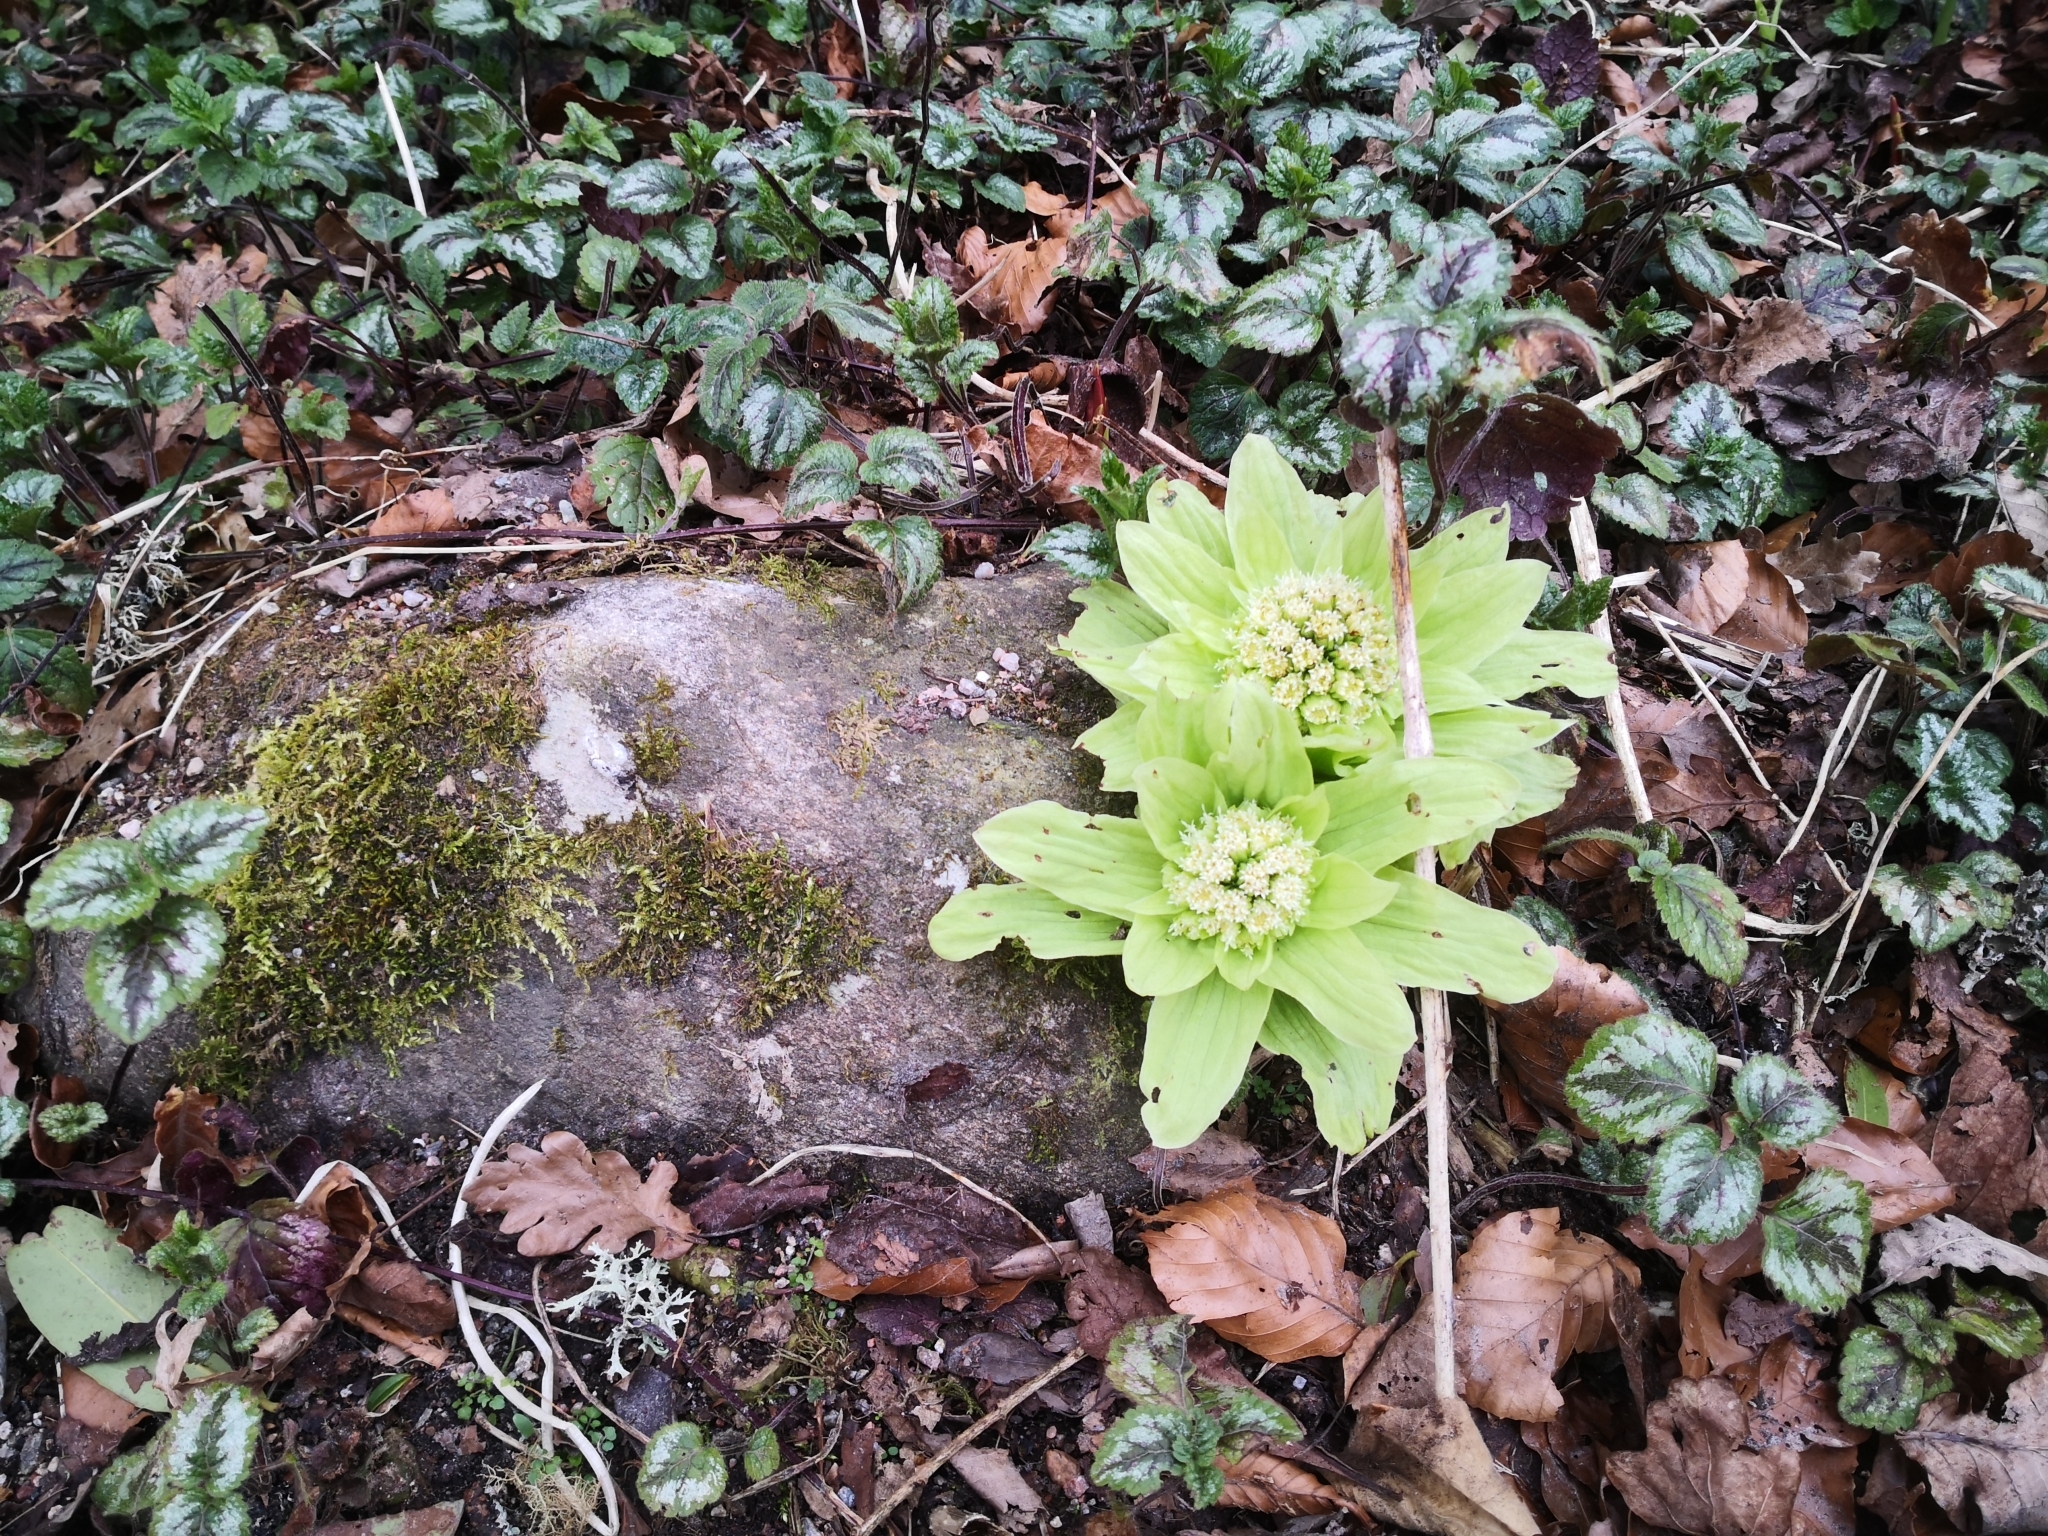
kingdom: Plantae
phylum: Tracheophyta
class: Magnoliopsida
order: Asterales
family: Asteraceae
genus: Petasites
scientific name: Petasites japonicus
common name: Giant butterbur
